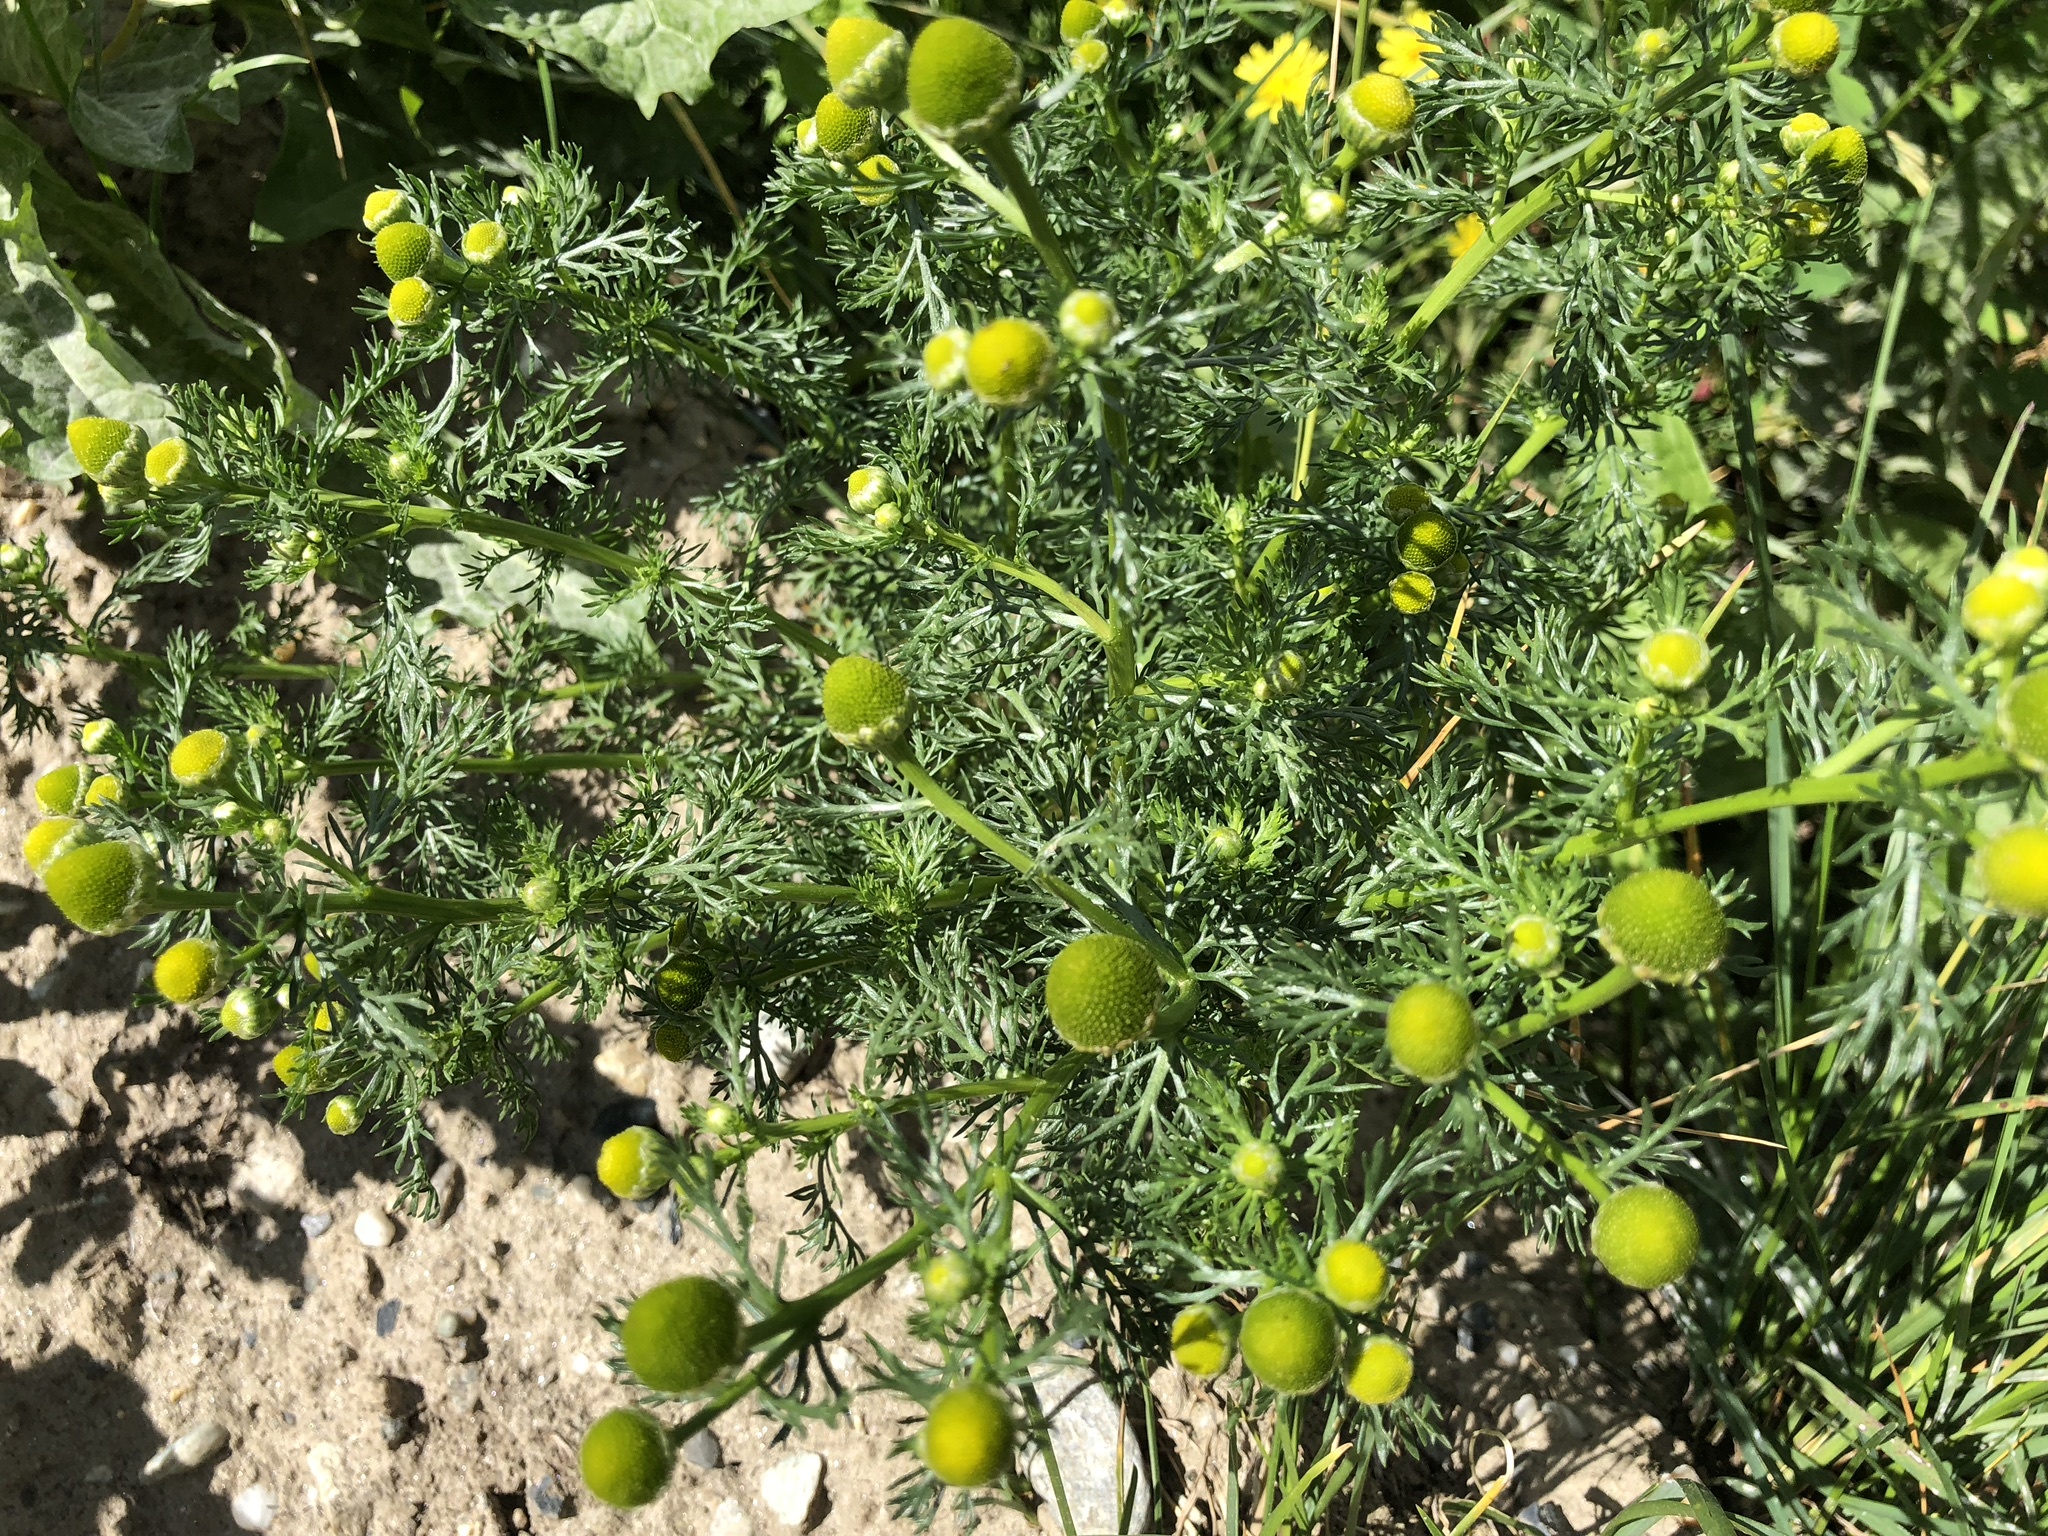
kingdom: Plantae
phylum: Tracheophyta
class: Magnoliopsida
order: Asterales
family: Asteraceae
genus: Matricaria
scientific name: Matricaria discoidea
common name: Disc mayweed
